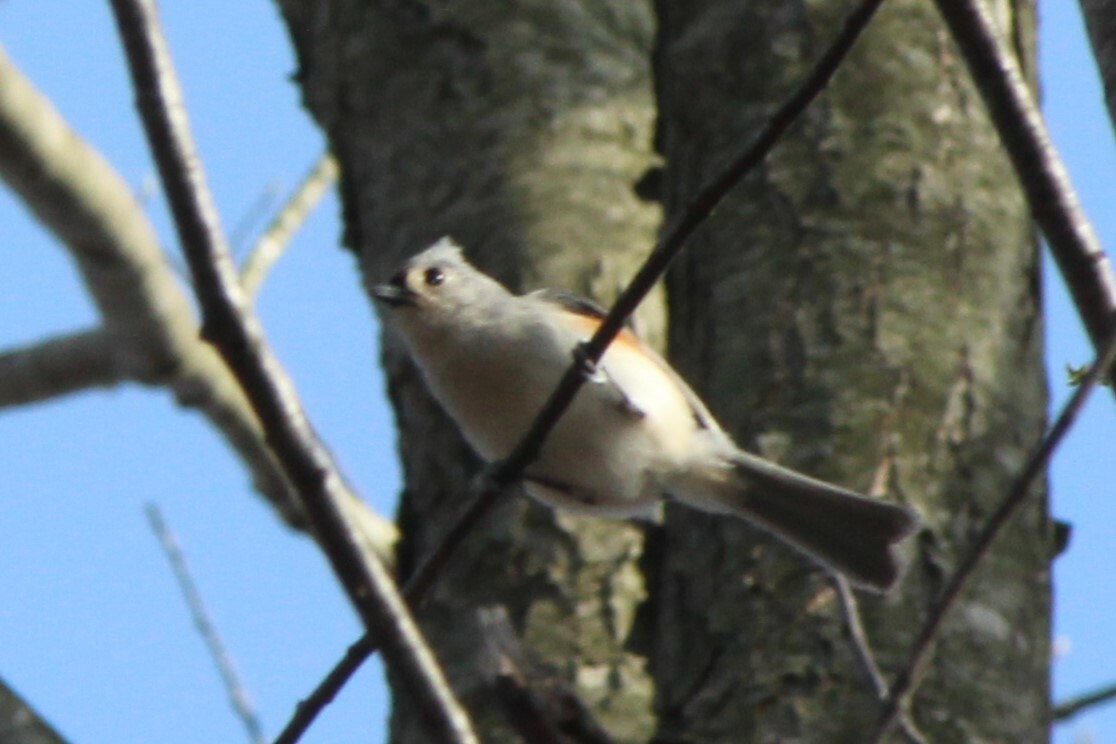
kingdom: Animalia
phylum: Chordata
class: Aves
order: Passeriformes
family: Paridae
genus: Baeolophus
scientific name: Baeolophus bicolor
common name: Tufted titmouse
